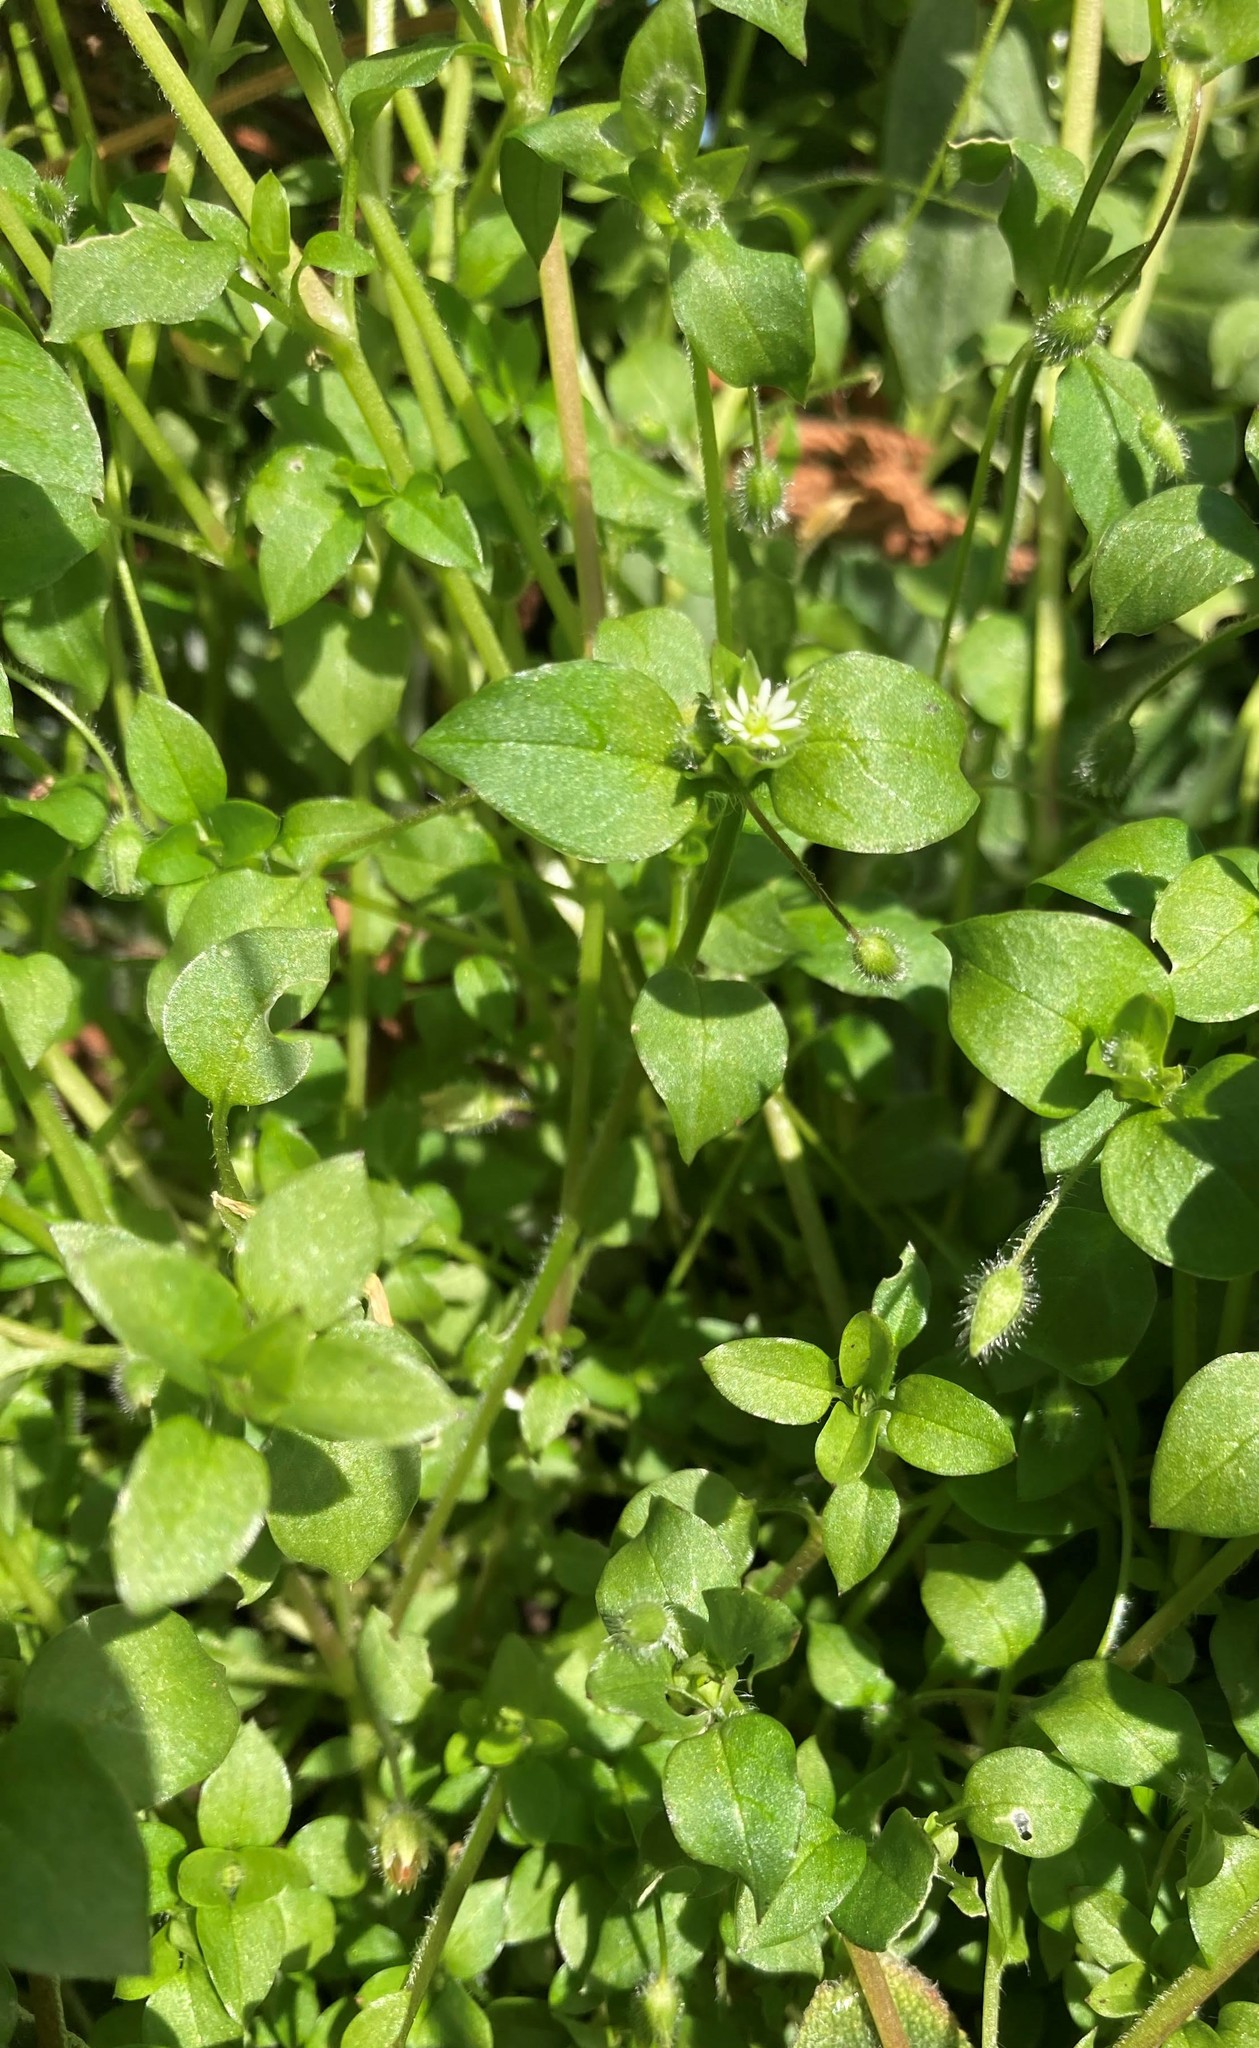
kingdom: Plantae
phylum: Tracheophyta
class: Magnoliopsida
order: Caryophyllales
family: Caryophyllaceae
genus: Stellaria
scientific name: Stellaria media
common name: Common chickweed
